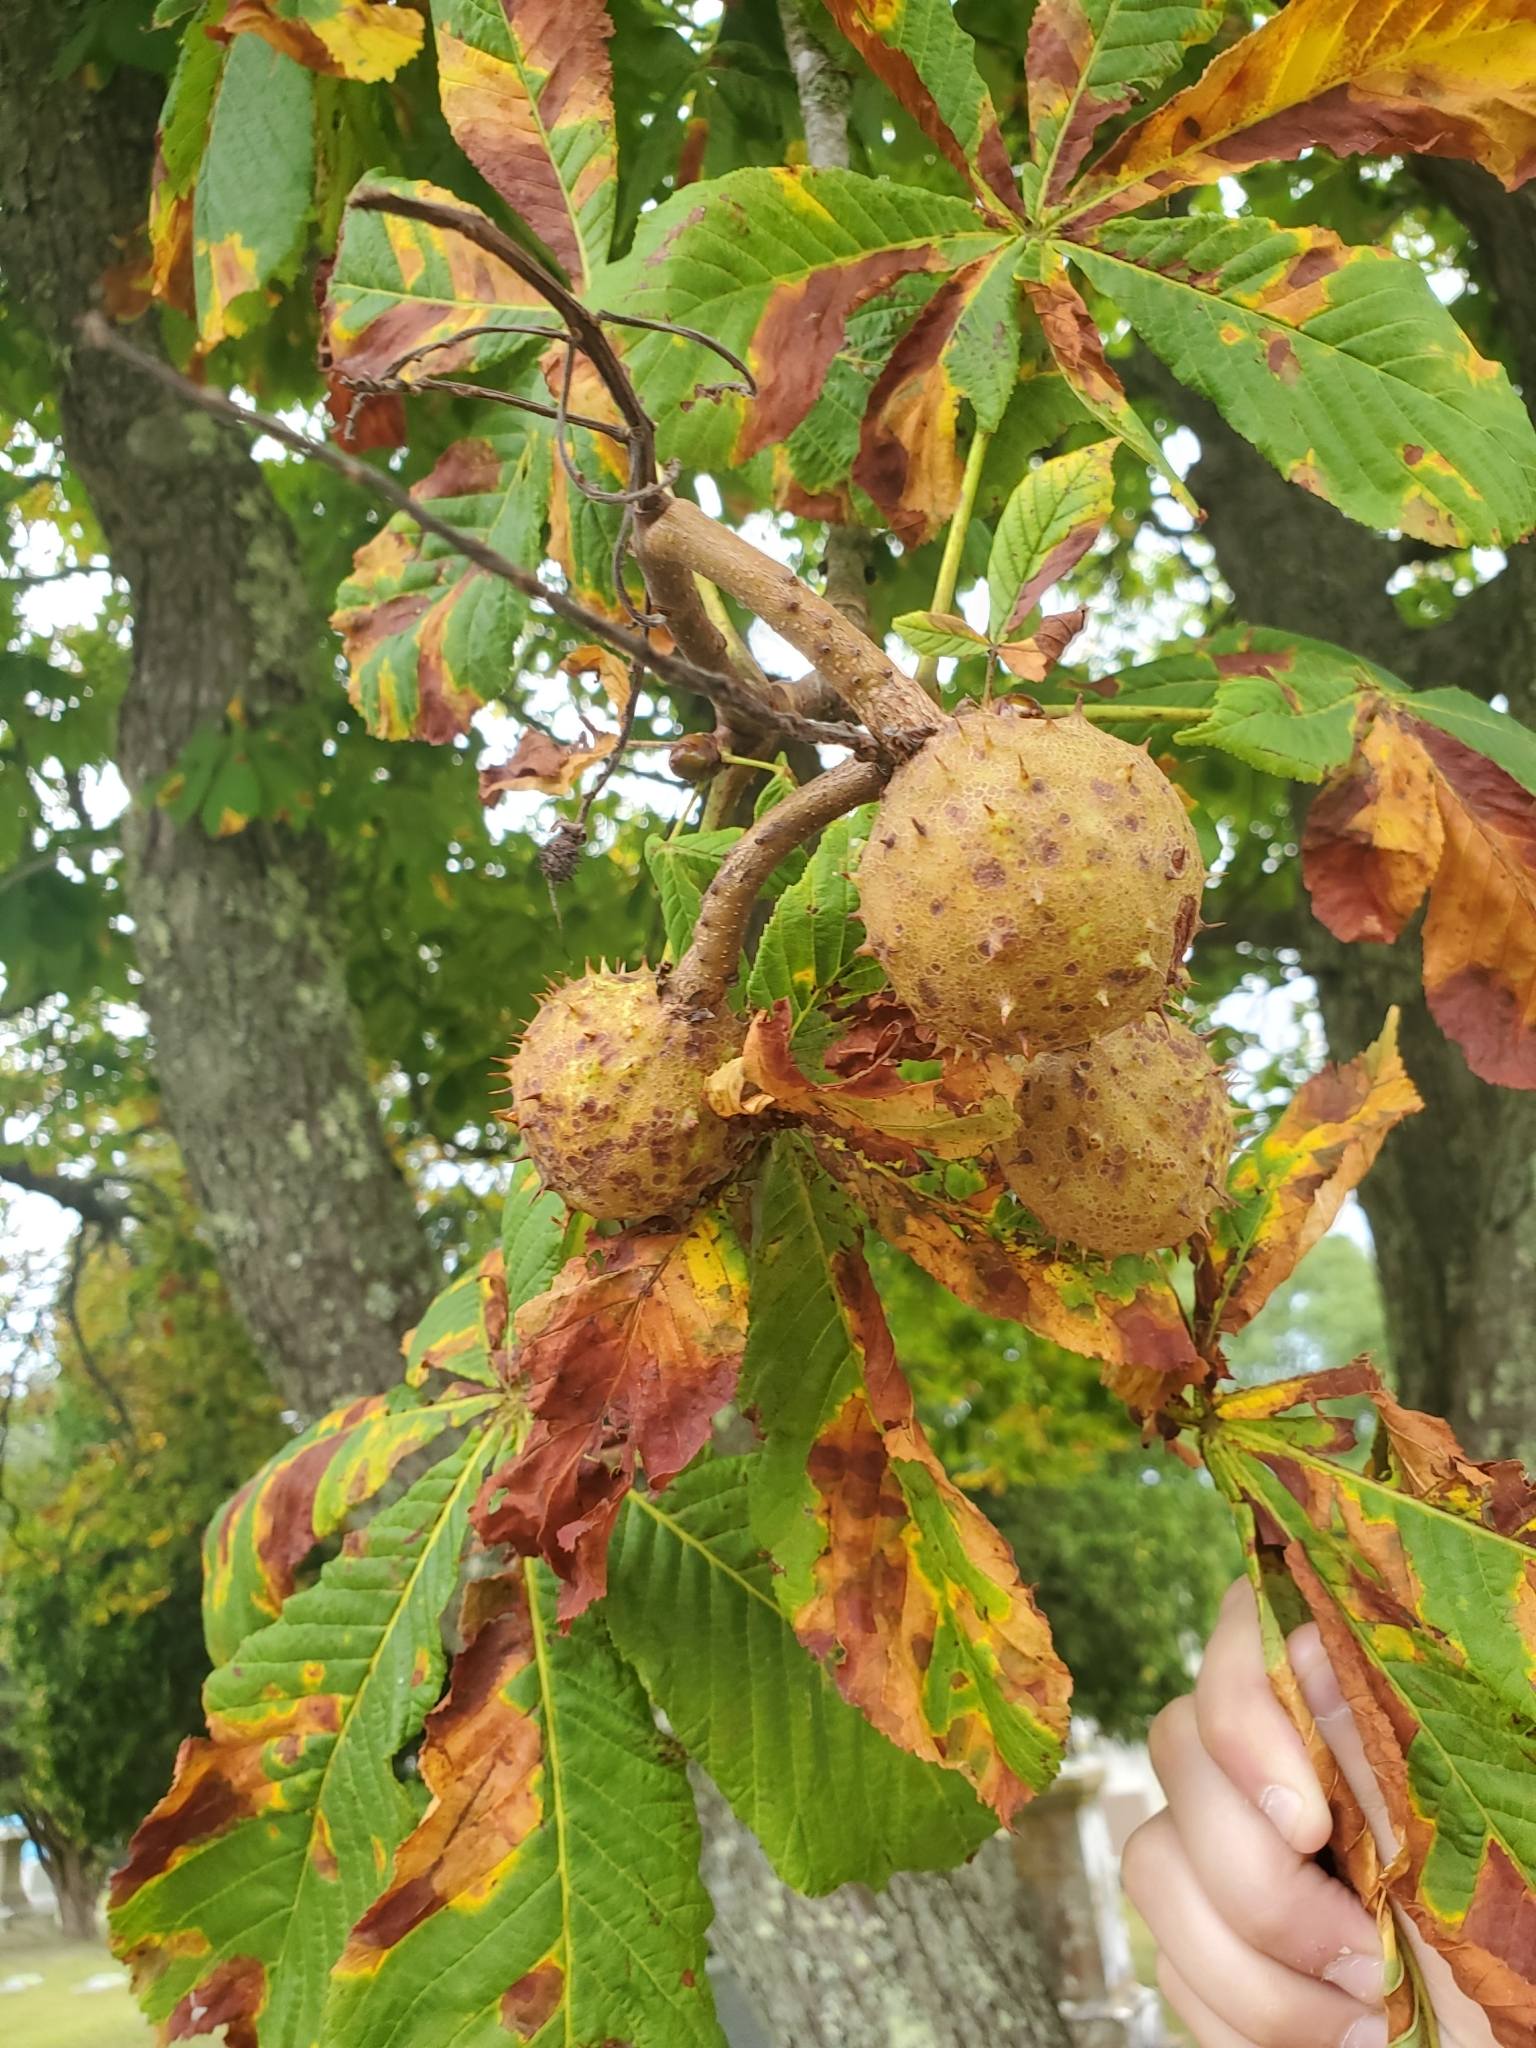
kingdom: Plantae
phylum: Tracheophyta
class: Magnoliopsida
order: Sapindales
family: Sapindaceae
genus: Aesculus
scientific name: Aesculus hippocastanum
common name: Horse-chestnut
